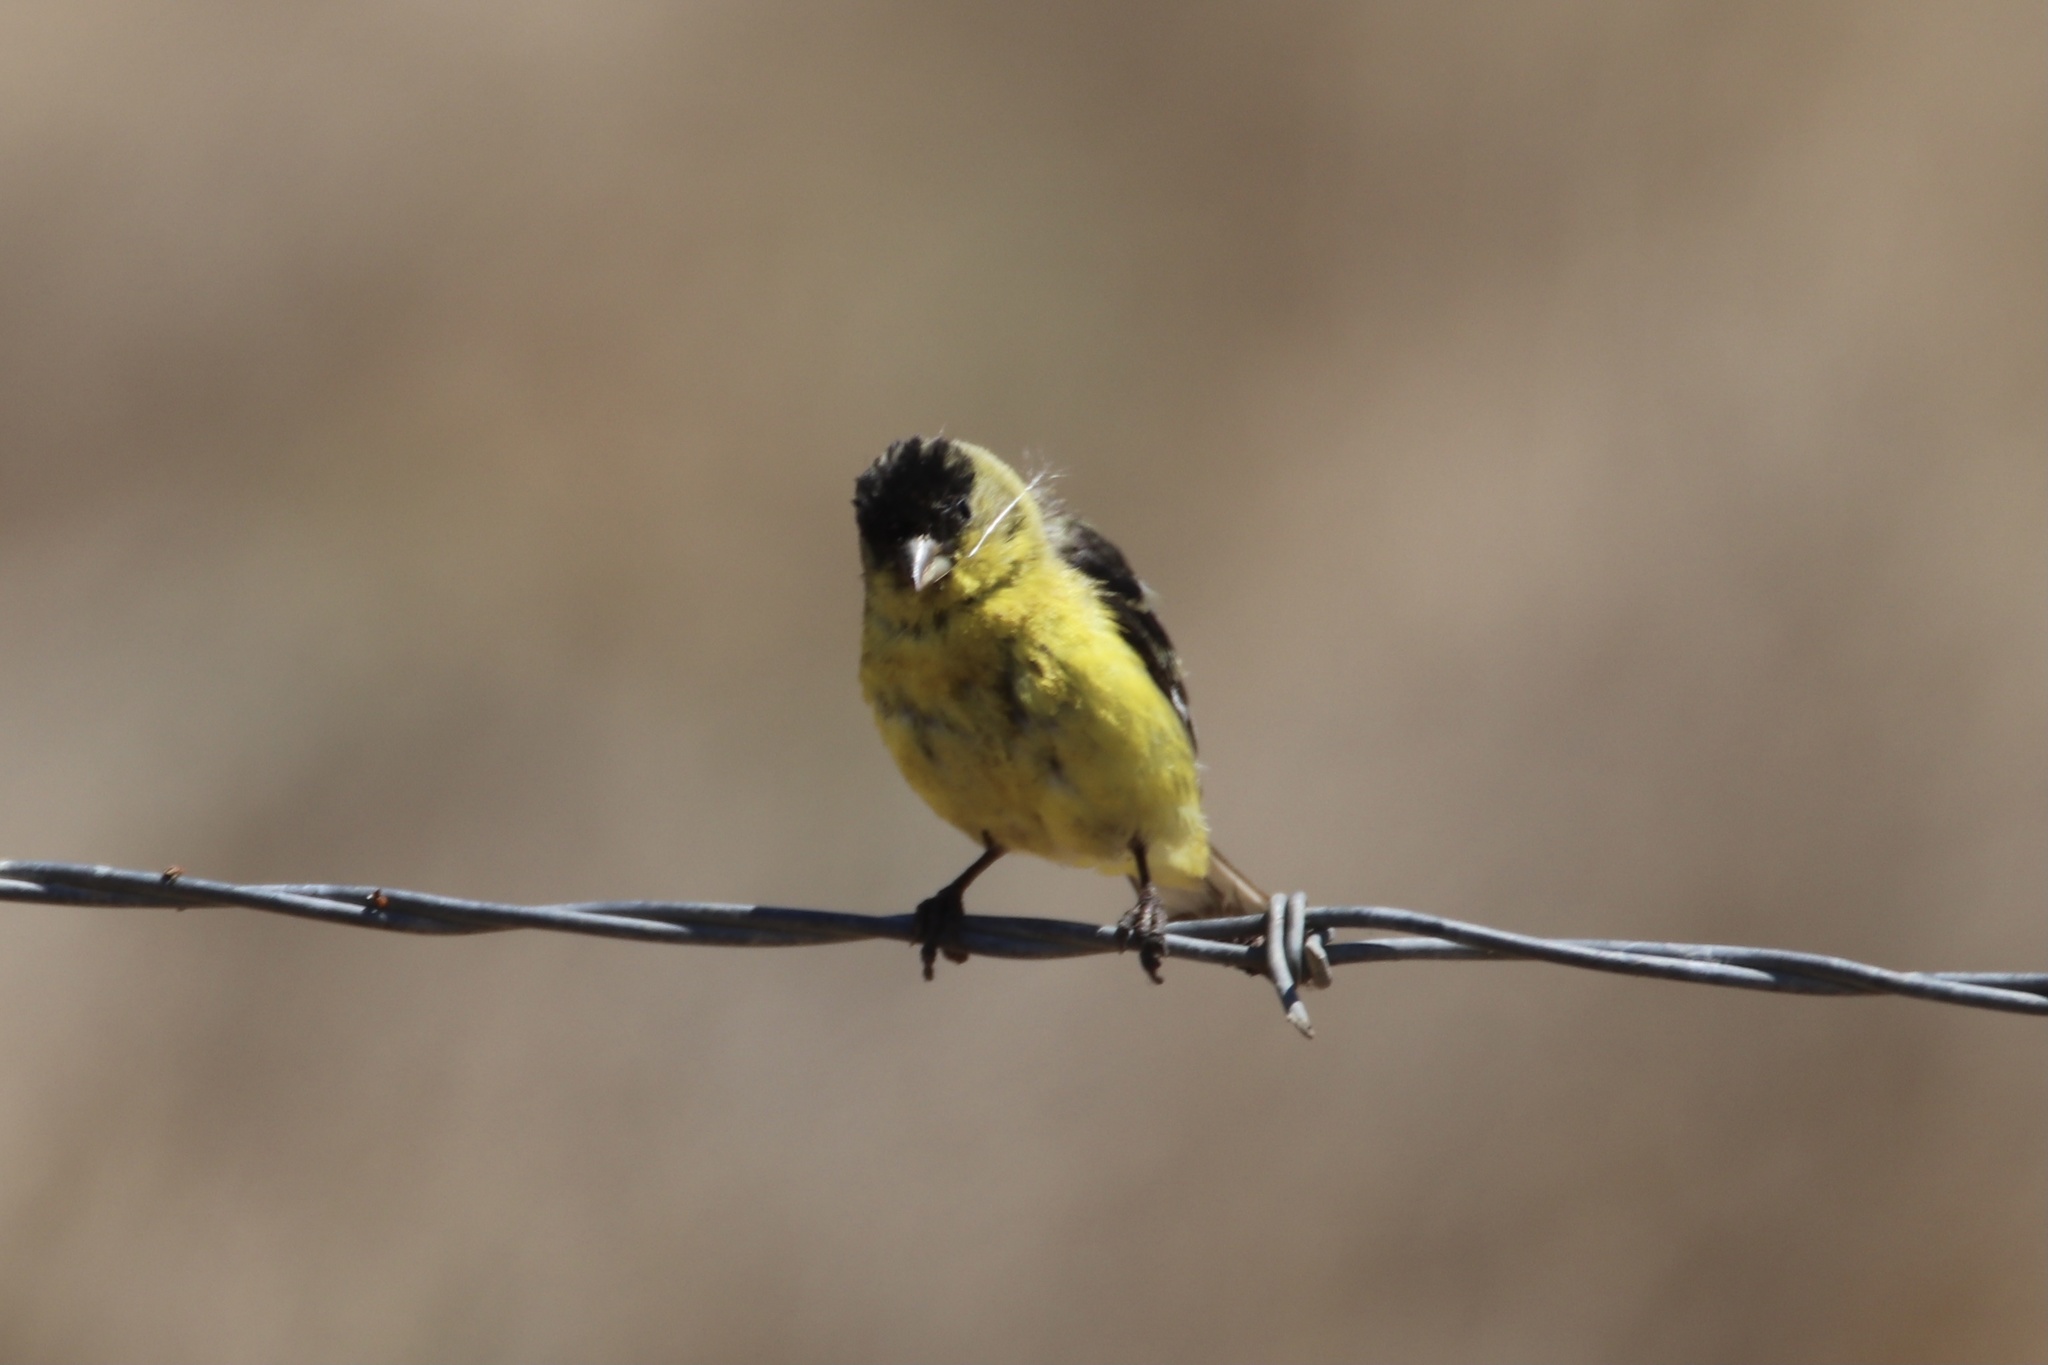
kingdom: Animalia
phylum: Chordata
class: Aves
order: Passeriformes
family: Fringillidae
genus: Spinus
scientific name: Spinus psaltria
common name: Lesser goldfinch
